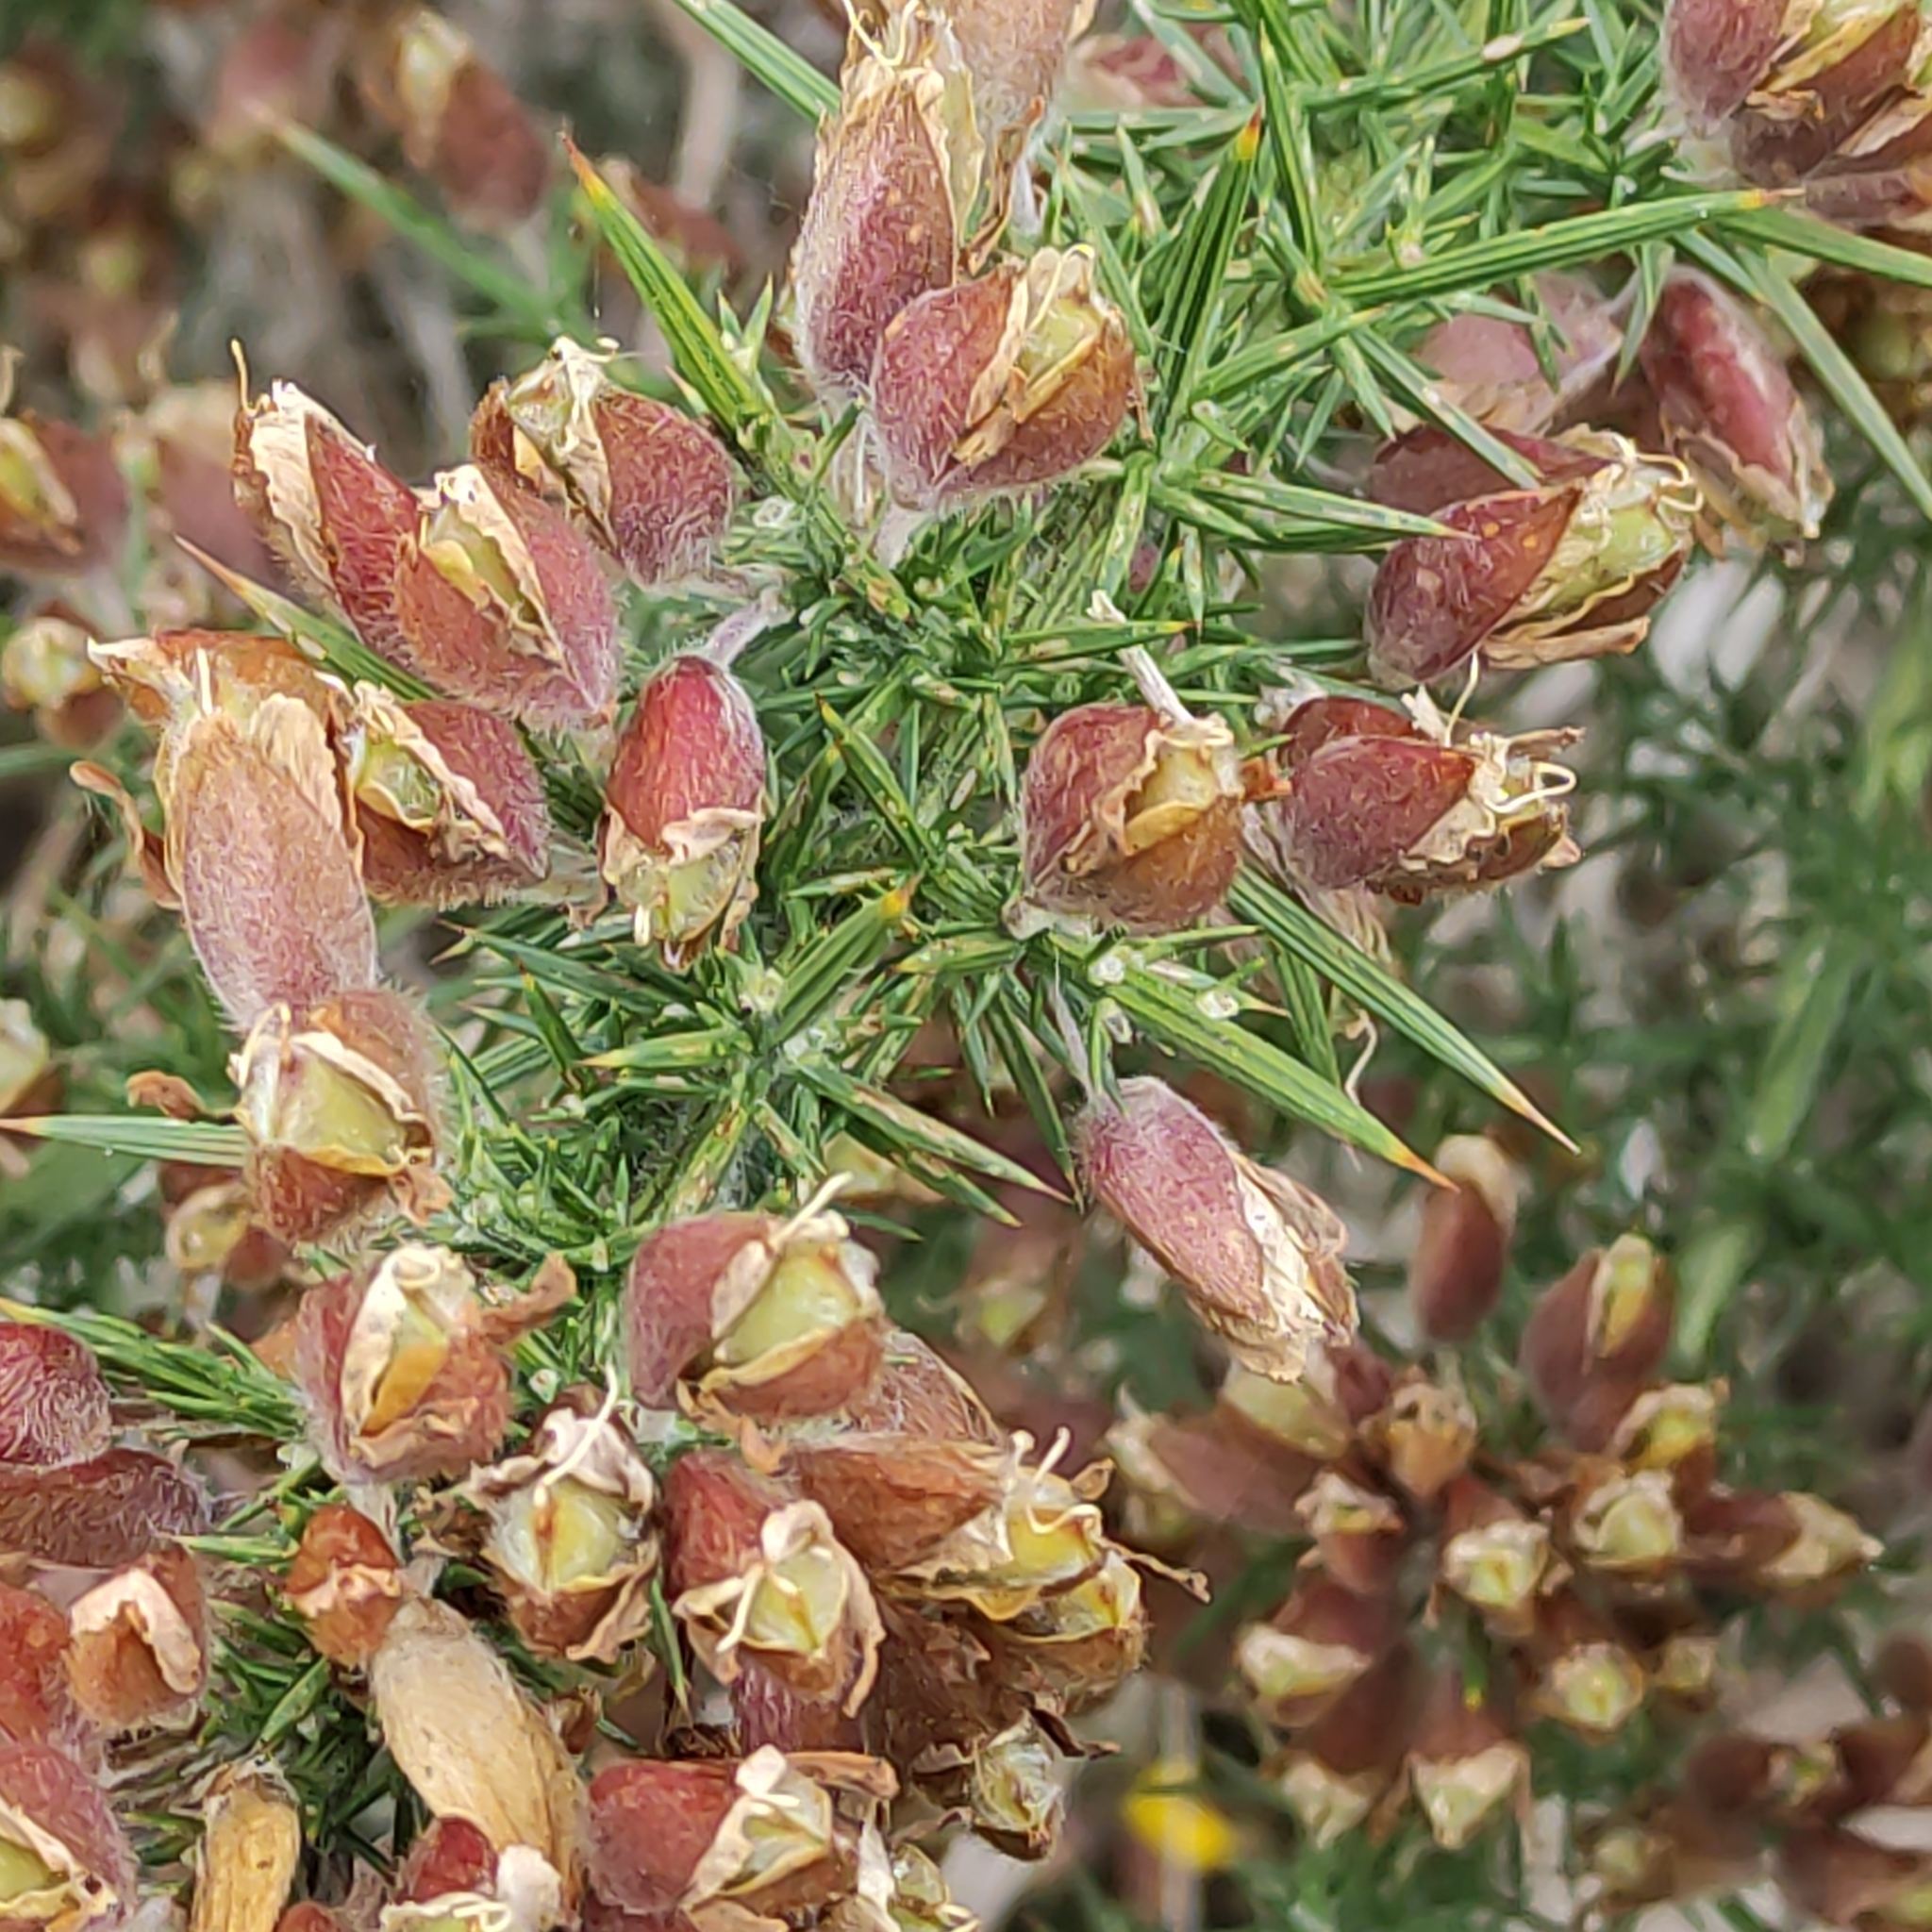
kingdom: Plantae
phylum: Tracheophyta
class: Magnoliopsida
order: Fabales
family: Fabaceae
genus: Ulex
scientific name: Ulex europaeus
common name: Common gorse
